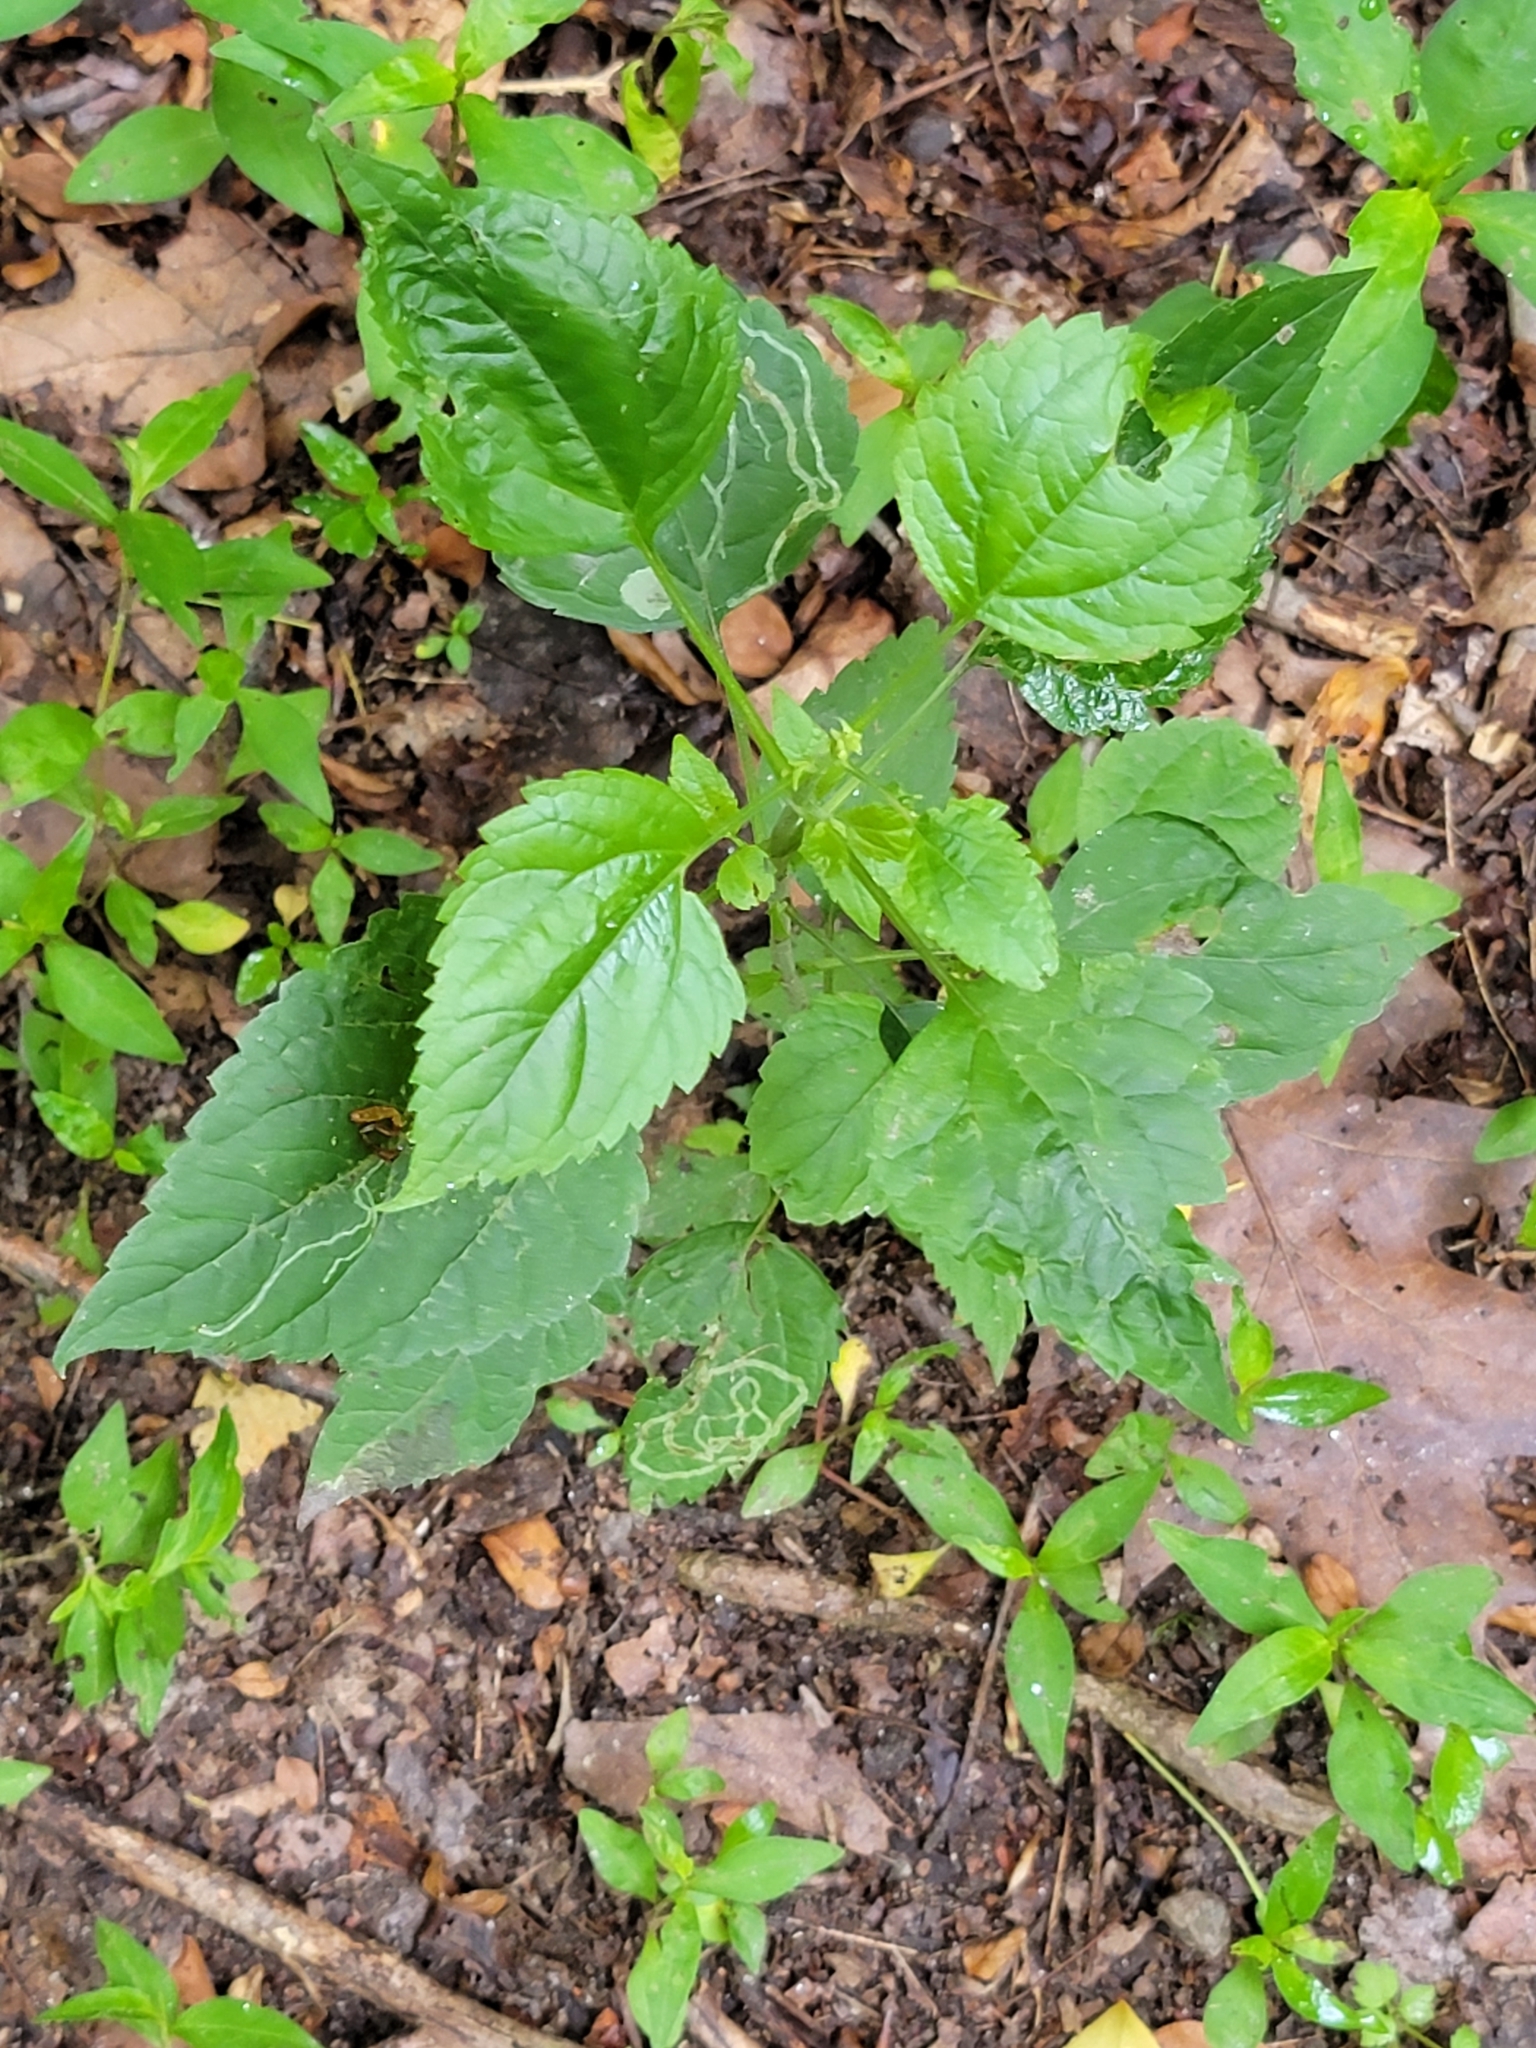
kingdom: Plantae
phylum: Tracheophyta
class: Magnoliopsida
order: Asterales
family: Asteraceae
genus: Ageratina
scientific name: Ageratina altissima
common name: White snakeroot
